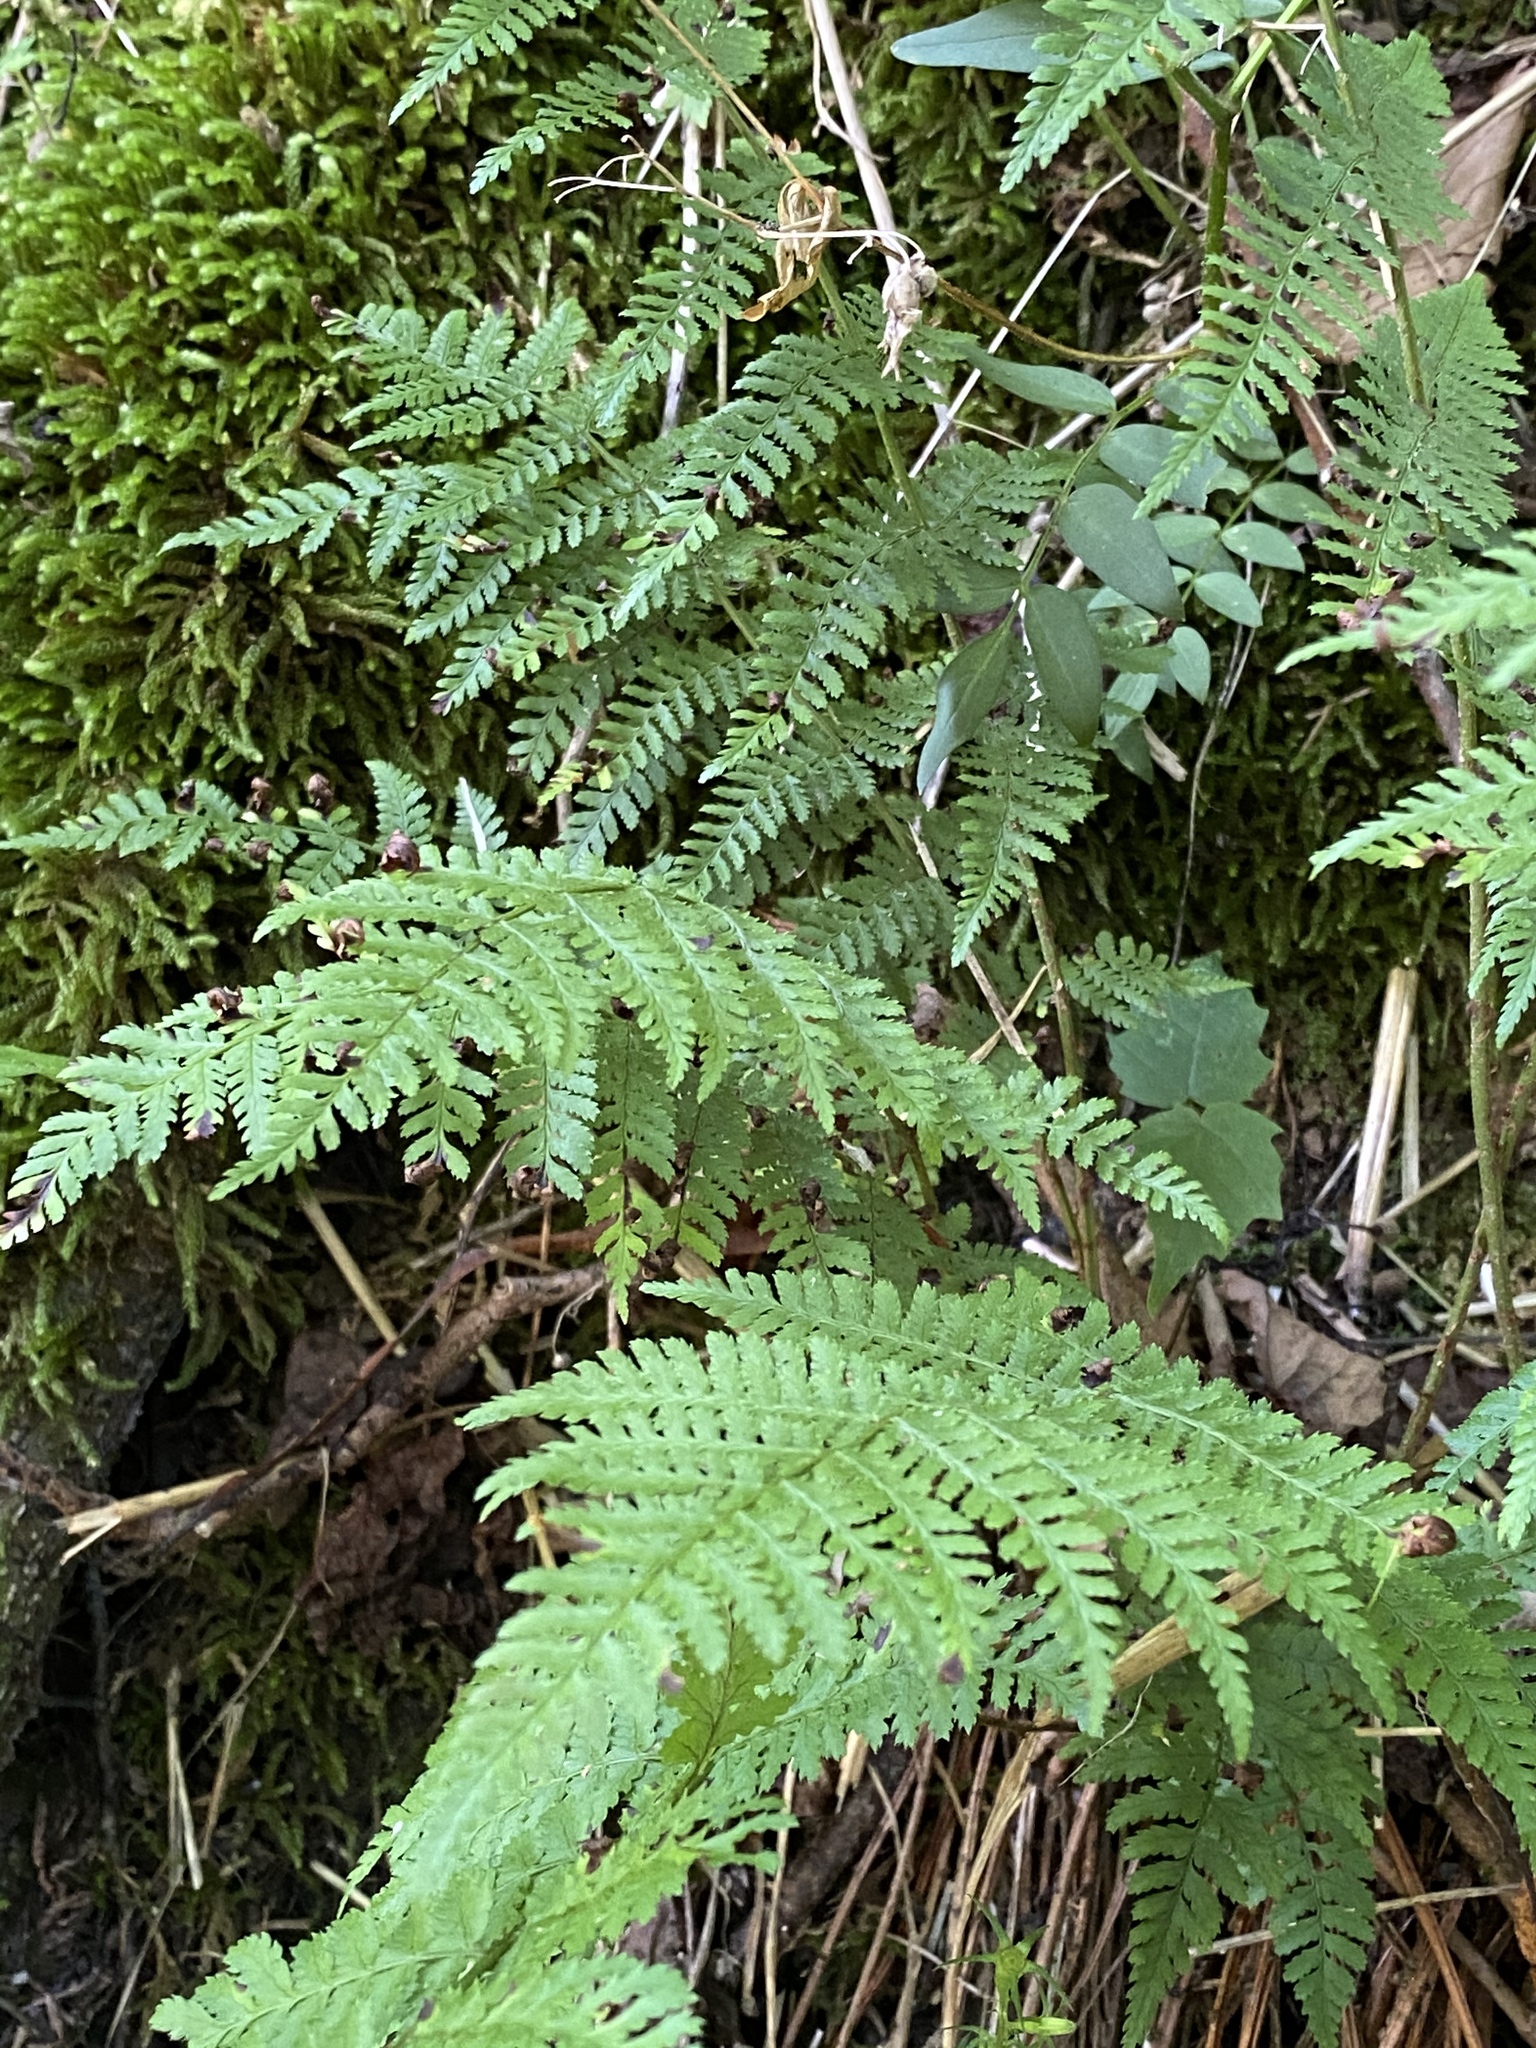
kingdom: Plantae
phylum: Tracheophyta
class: Polypodiopsida
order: Polypodiales
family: Dryopteridaceae
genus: Dryopteris
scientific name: Dryopteris intermedia
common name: Evergreen wood fern
